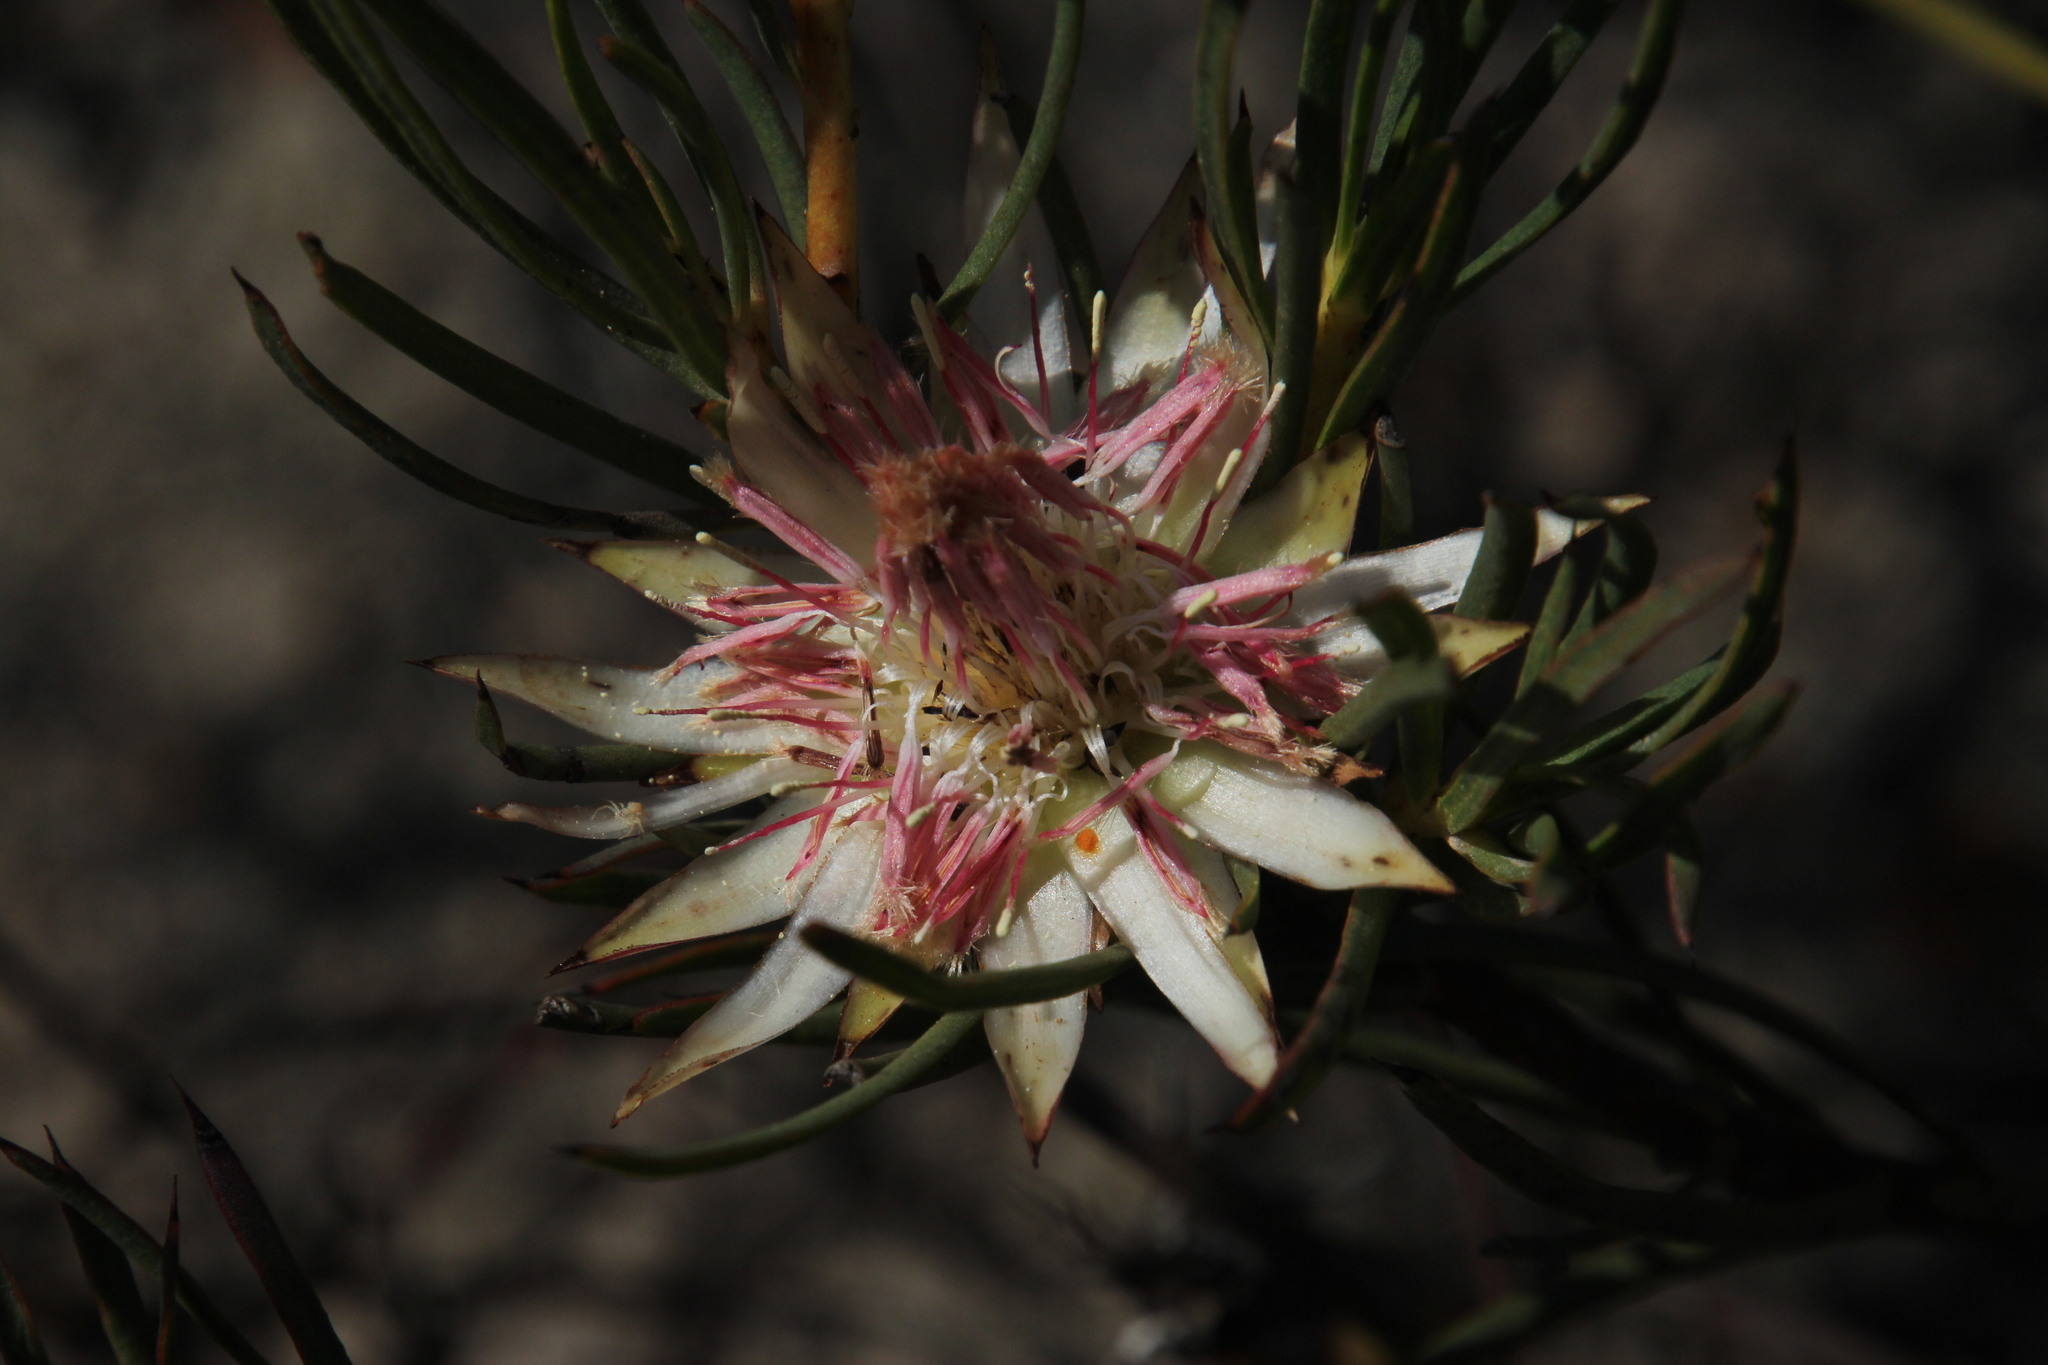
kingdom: Plantae
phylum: Tracheophyta
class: Magnoliopsida
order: Proteales
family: Proteaceae
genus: Protea
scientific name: Protea odorata
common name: Swartland sugarbush
